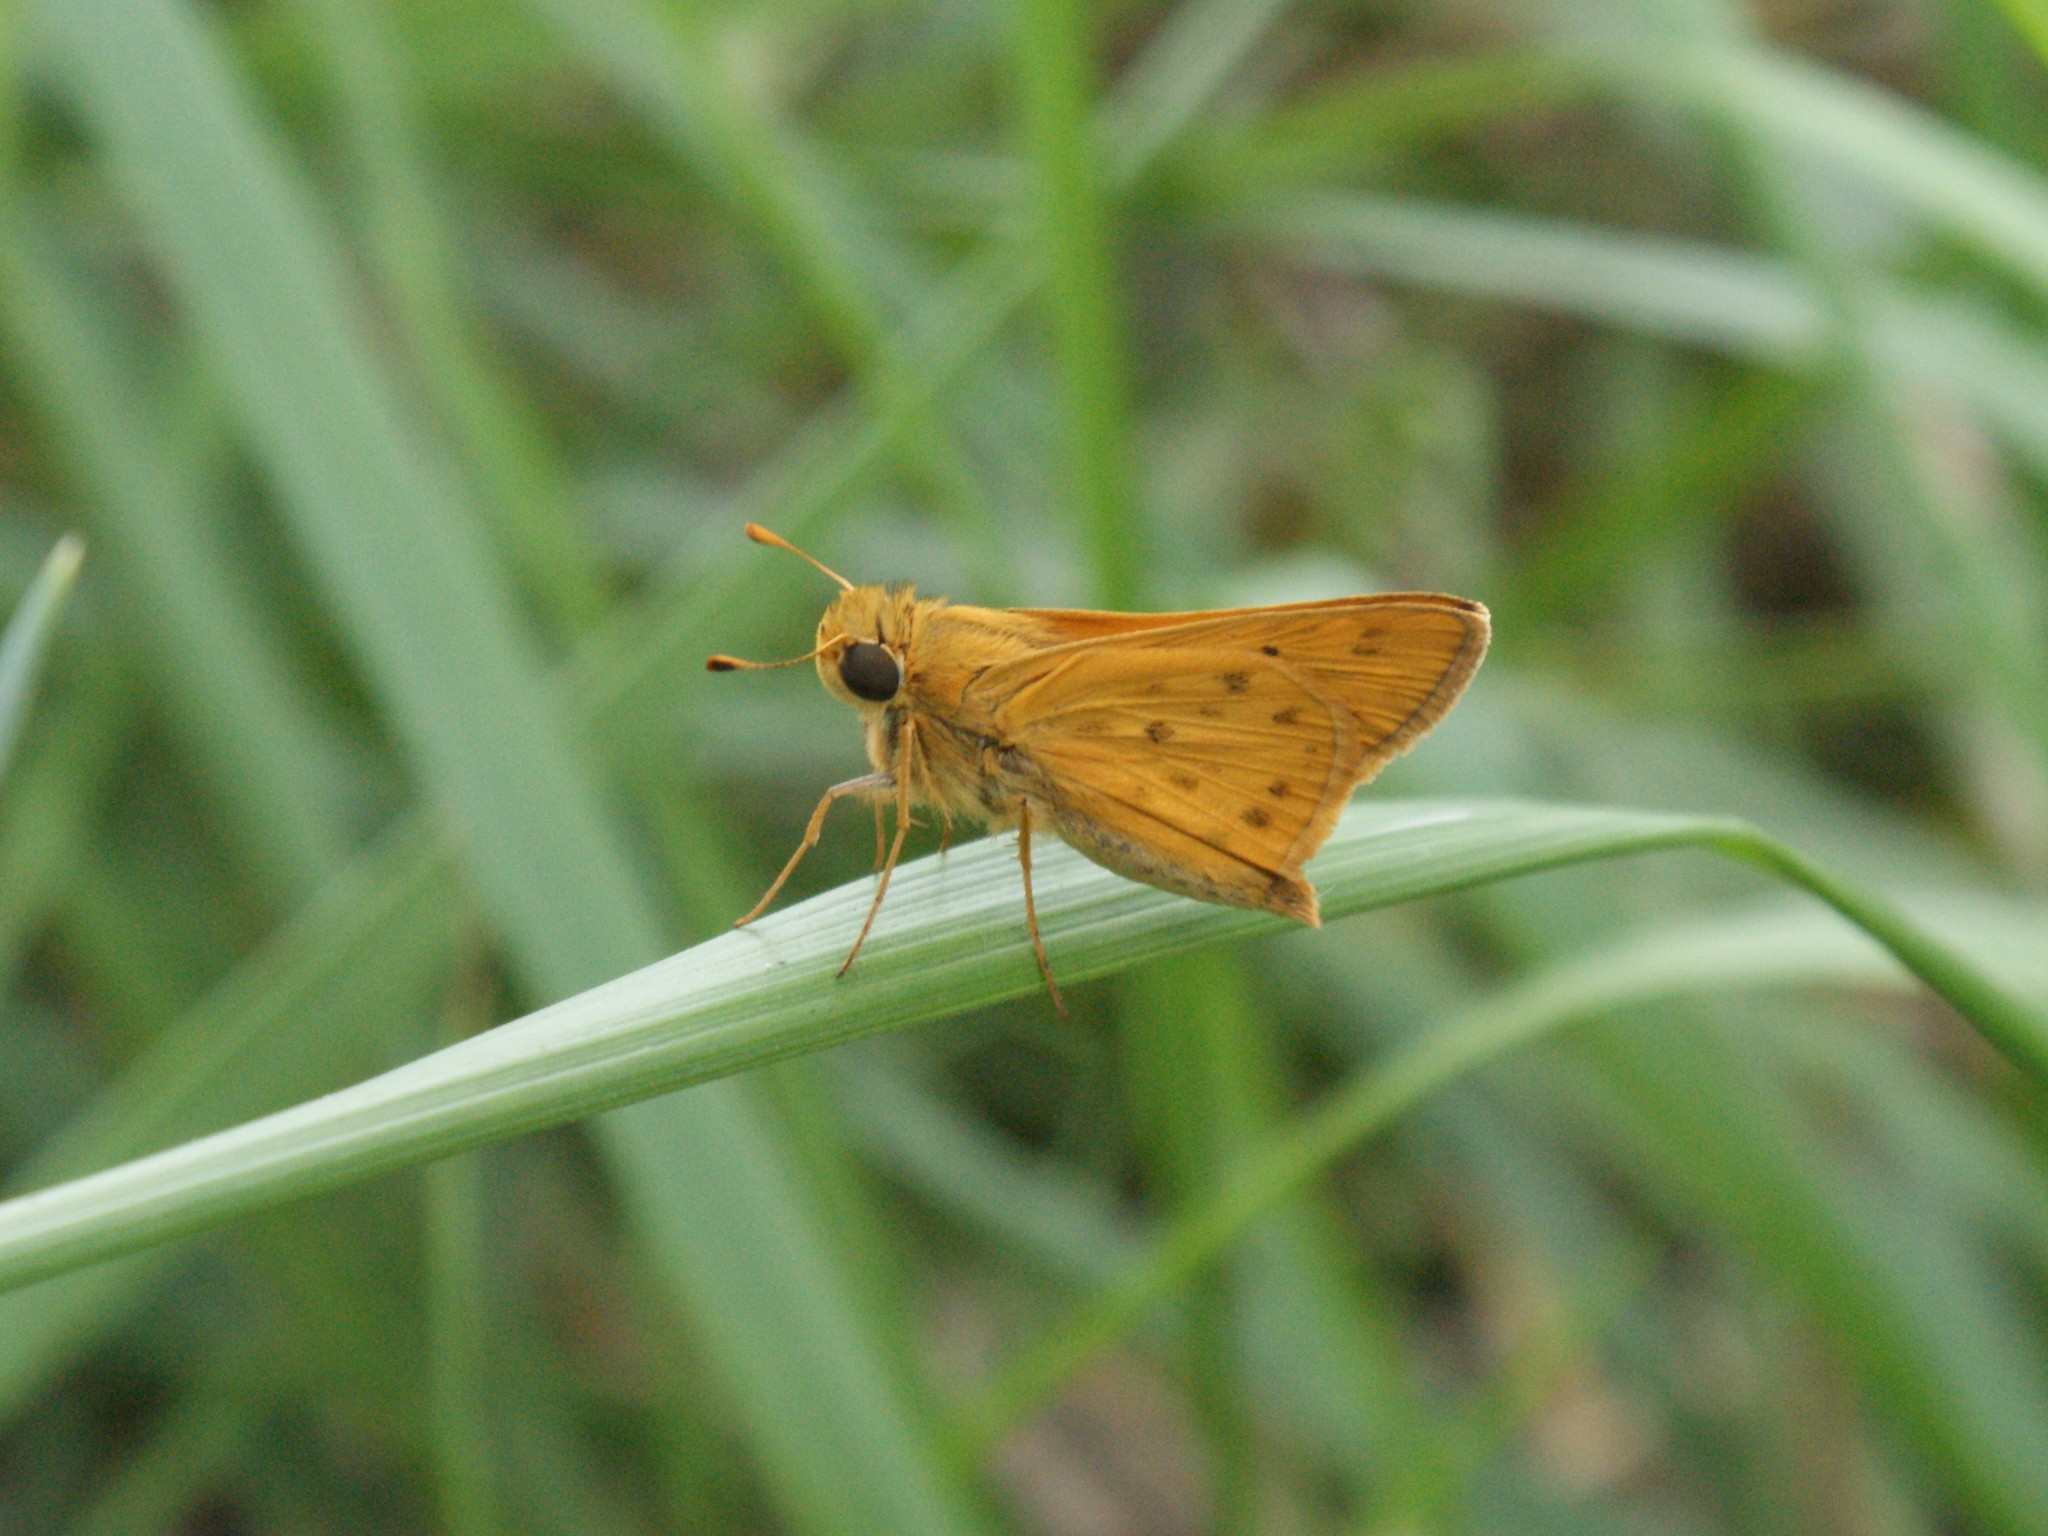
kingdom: Animalia
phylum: Arthropoda
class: Insecta
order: Lepidoptera
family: Hesperiidae
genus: Hylephila
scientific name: Hylephila phyleus
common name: Fiery skipper
